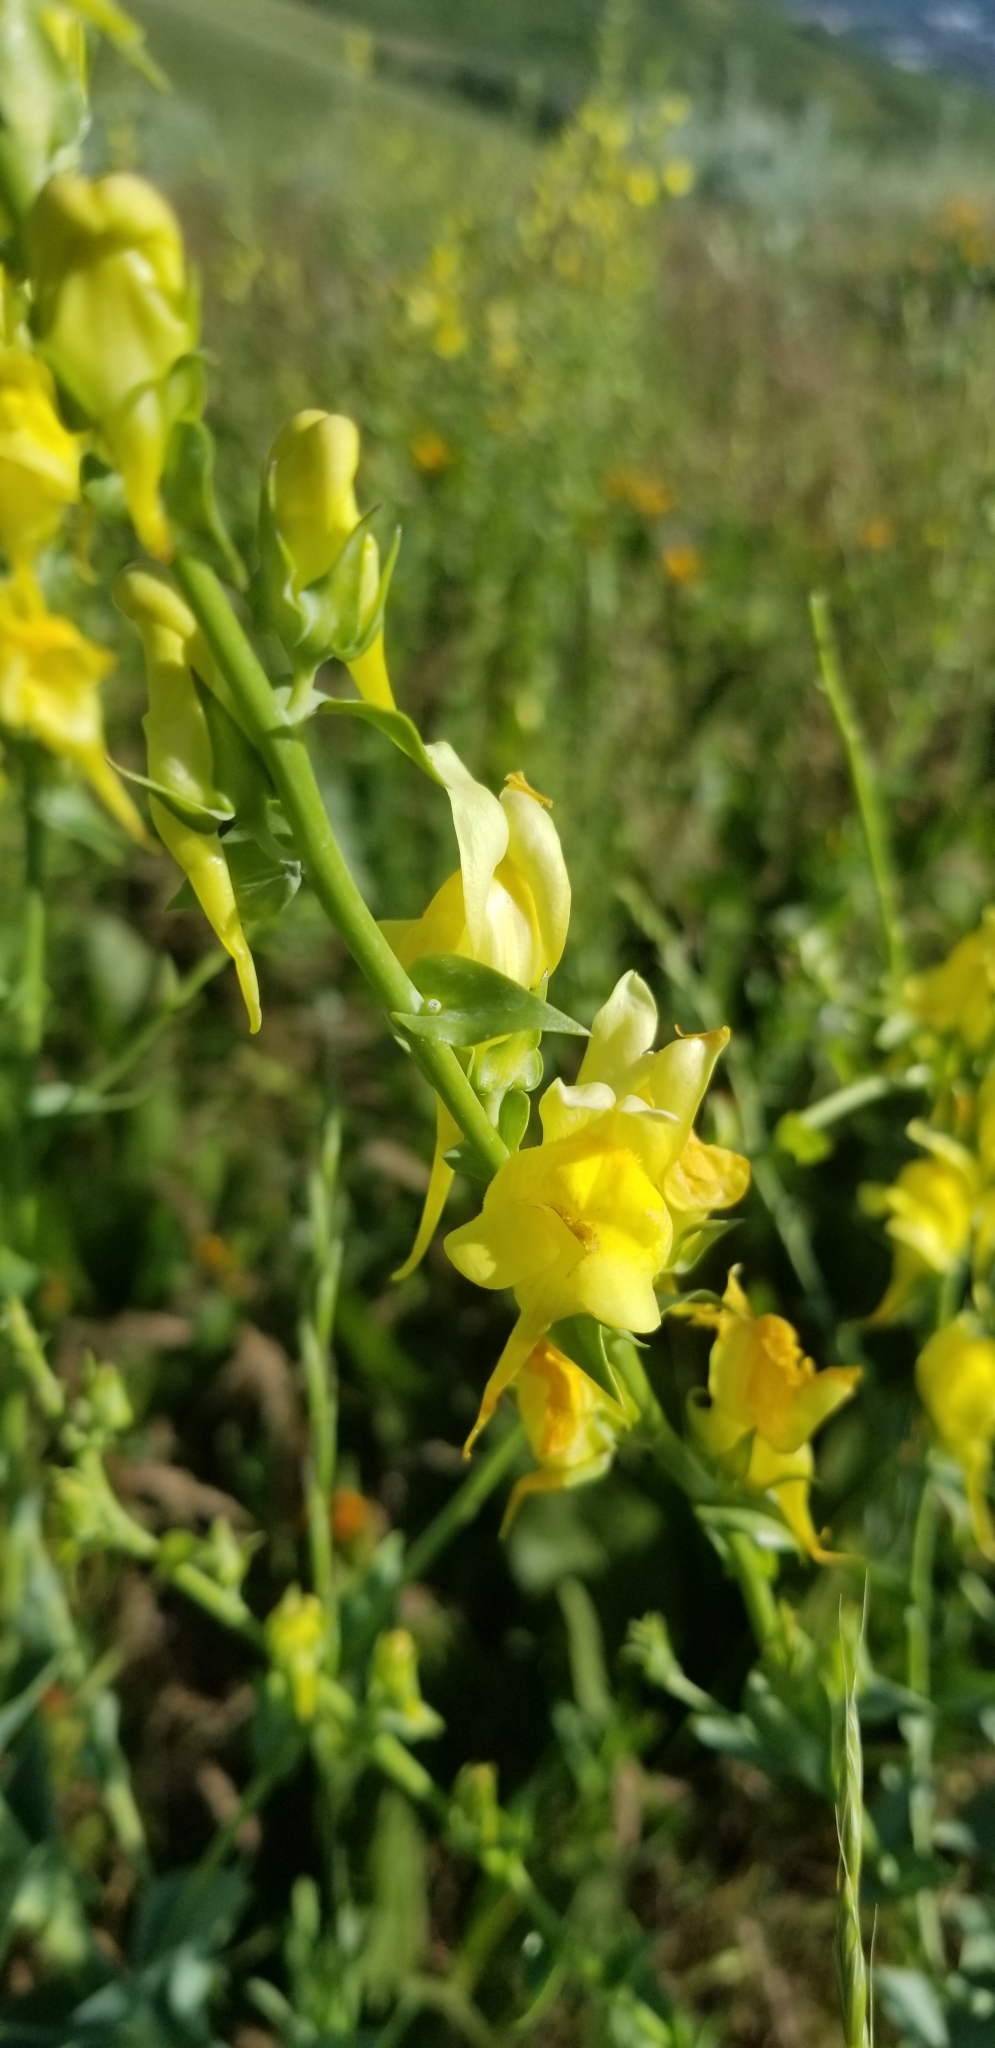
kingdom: Plantae
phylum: Tracheophyta
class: Magnoliopsida
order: Lamiales
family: Plantaginaceae
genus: Linaria
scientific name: Linaria dalmatica
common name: Dalmatian toadflax
